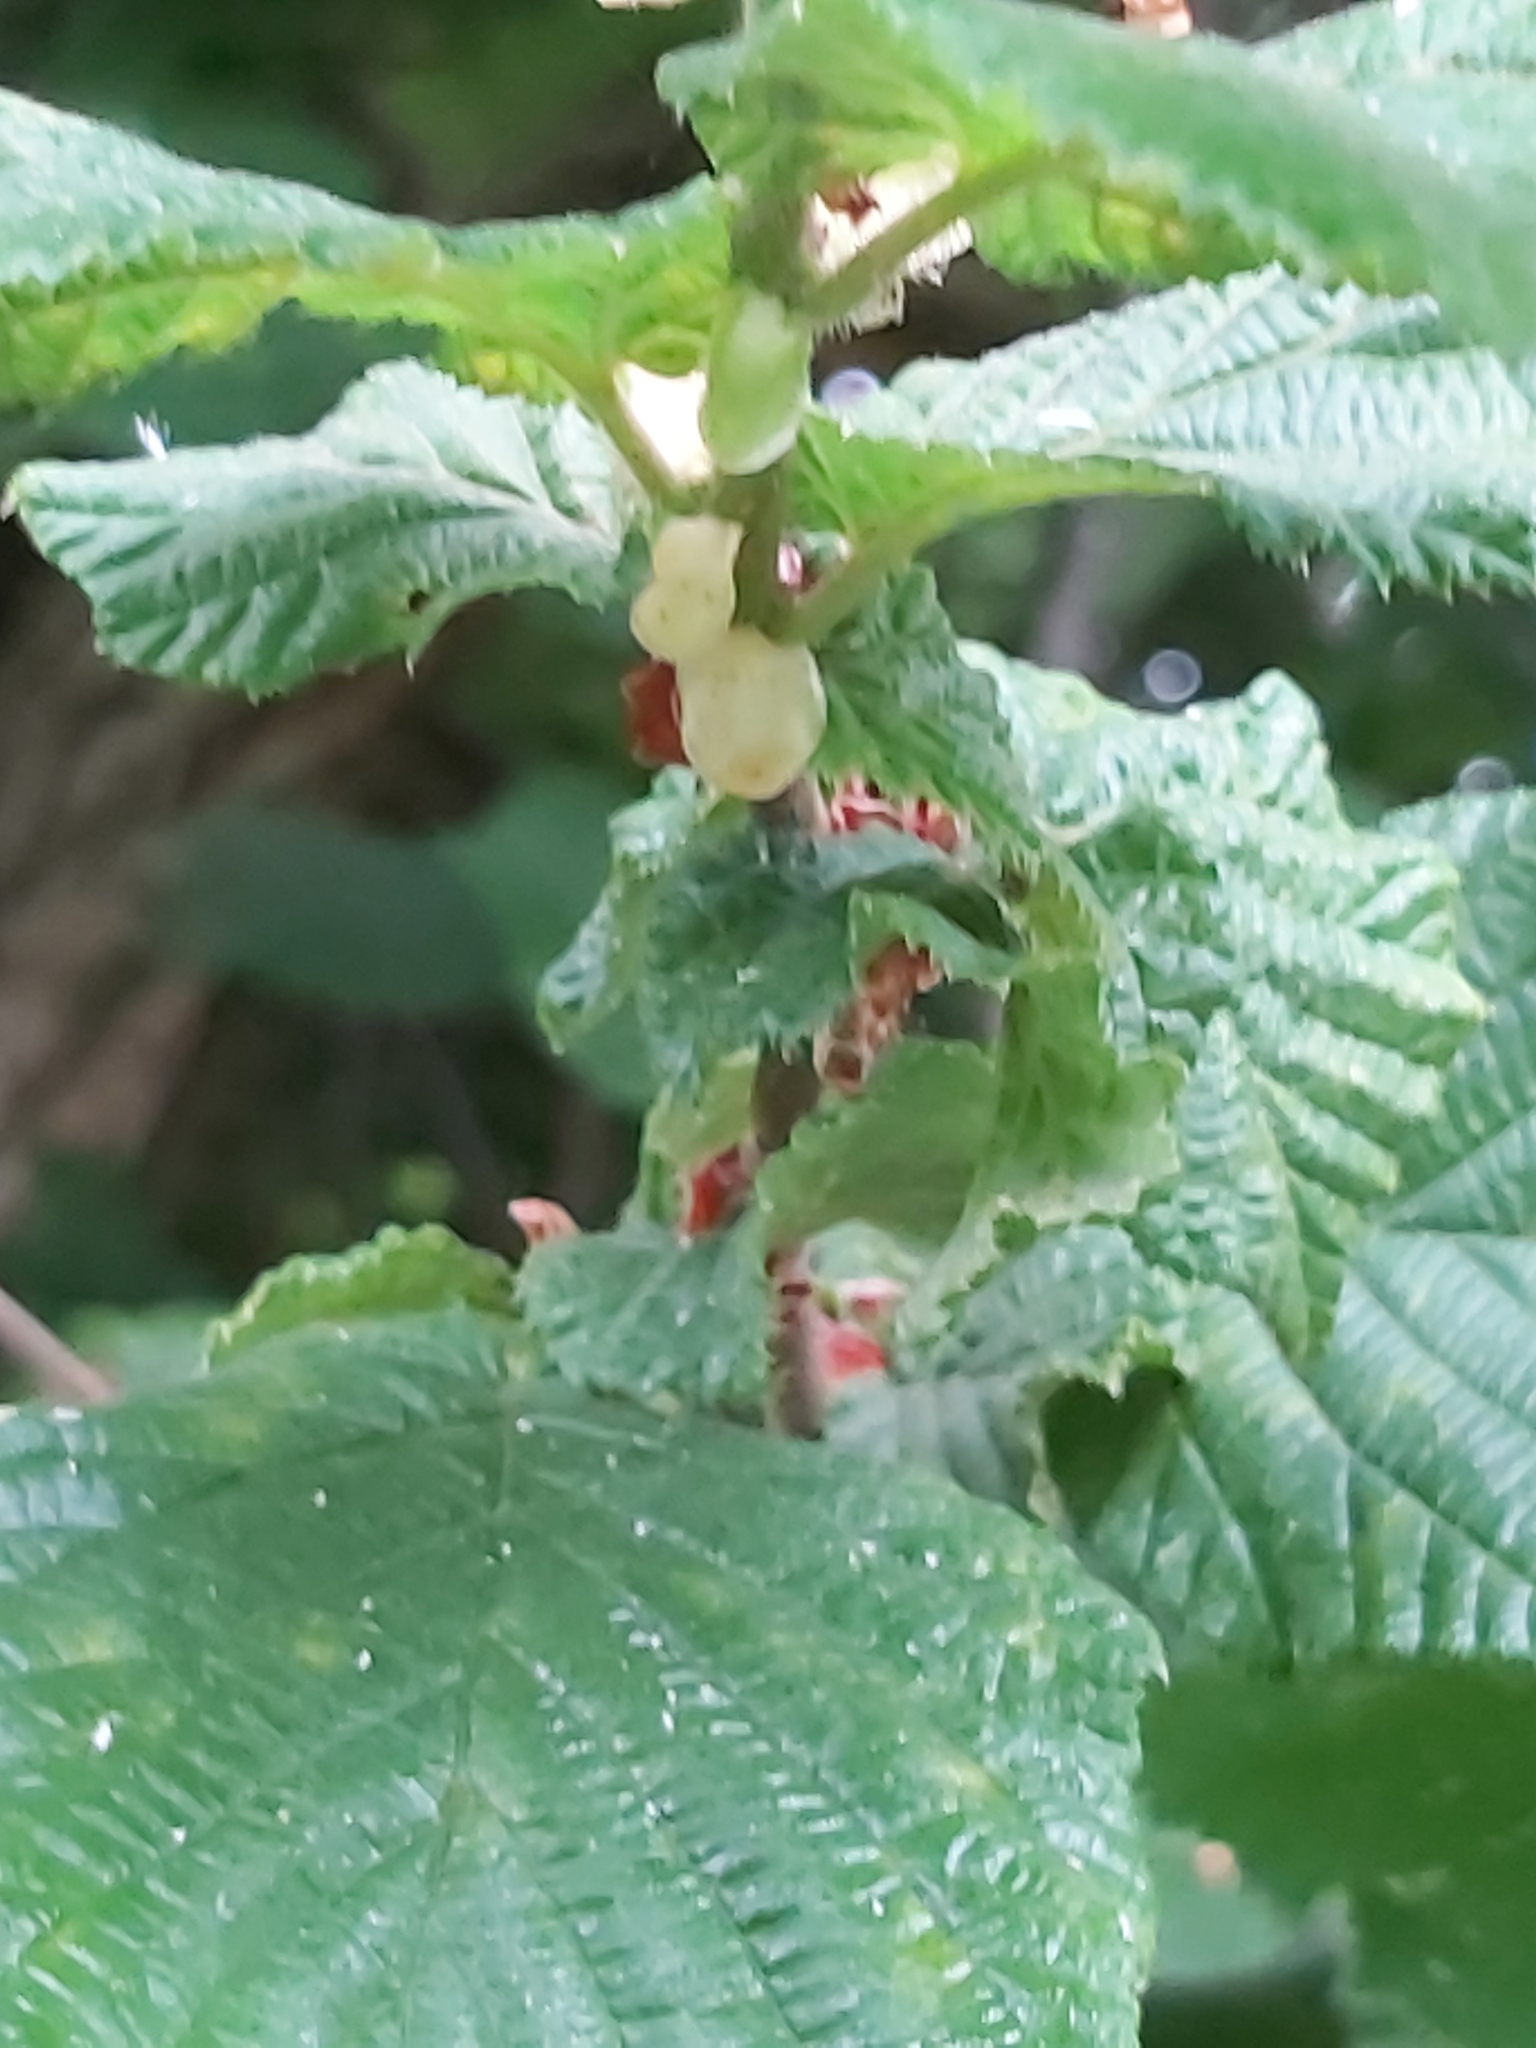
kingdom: Plantae
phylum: Tracheophyta
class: Magnoliopsida
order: Fagales
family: Betulaceae
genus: Corylus
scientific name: Corylus avellana
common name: European hazel
